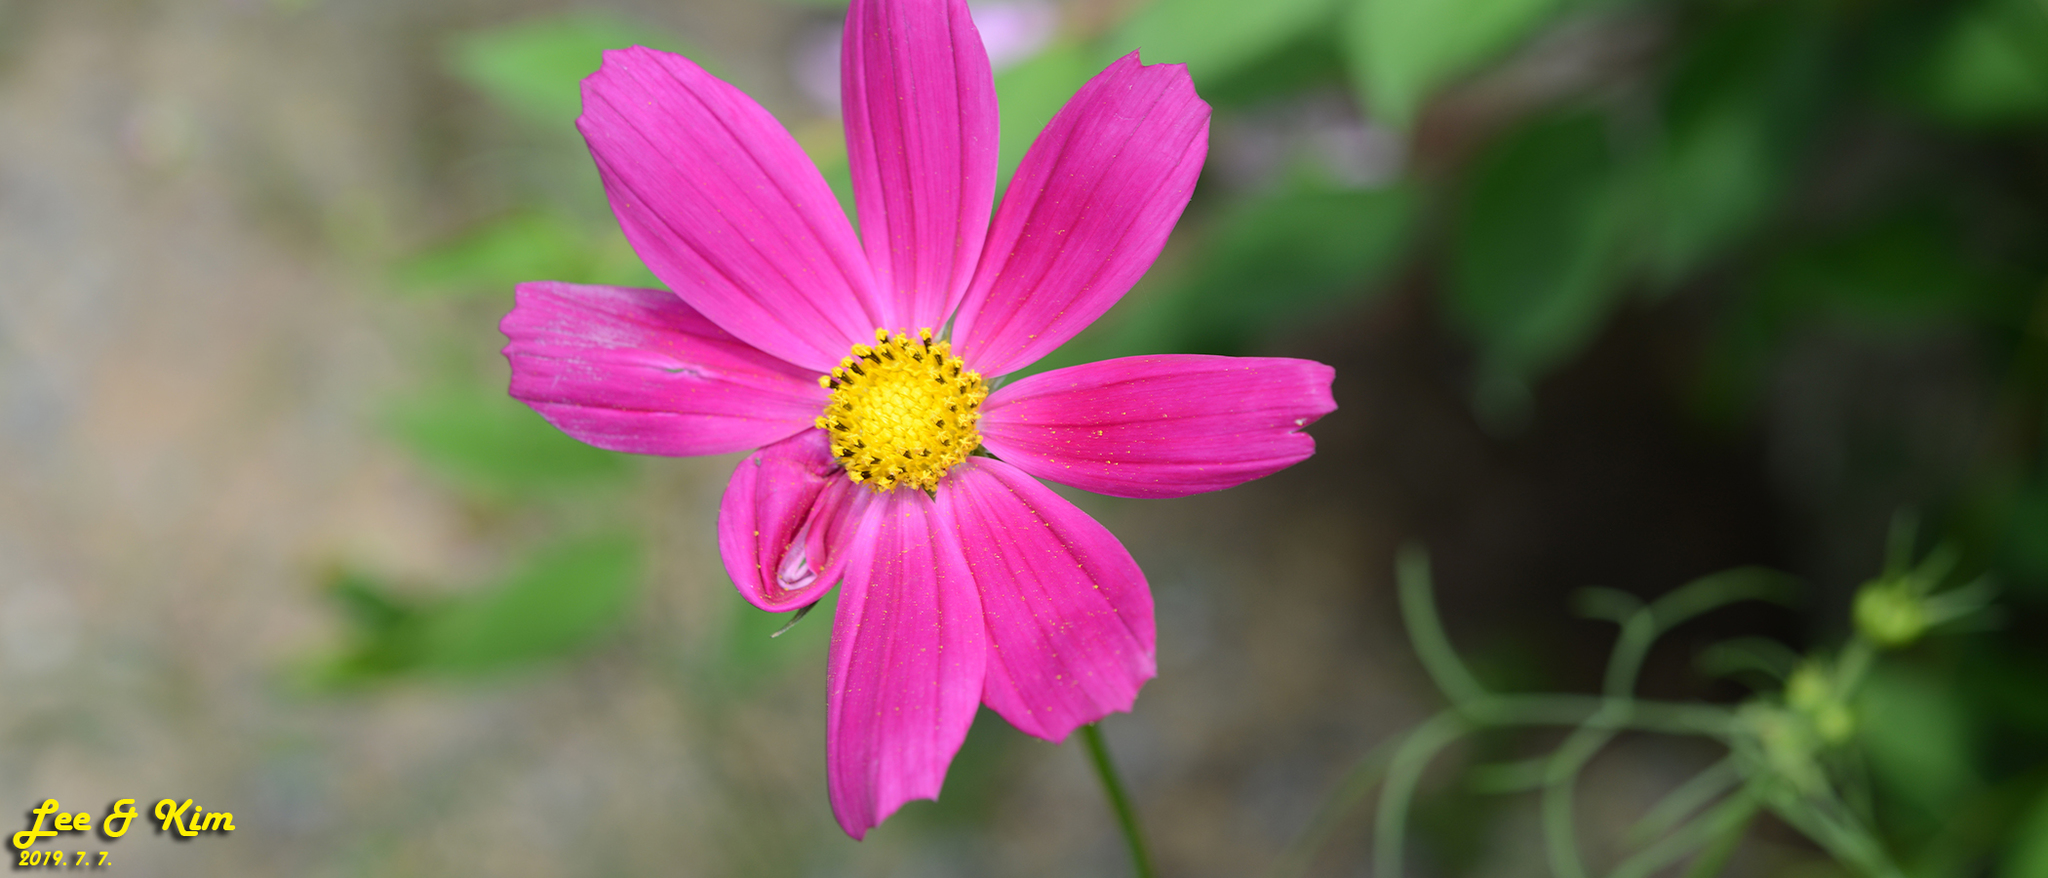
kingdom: Plantae
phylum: Tracheophyta
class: Magnoliopsida
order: Asterales
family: Asteraceae
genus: Cosmos
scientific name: Cosmos bipinnatus
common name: Garden cosmos
